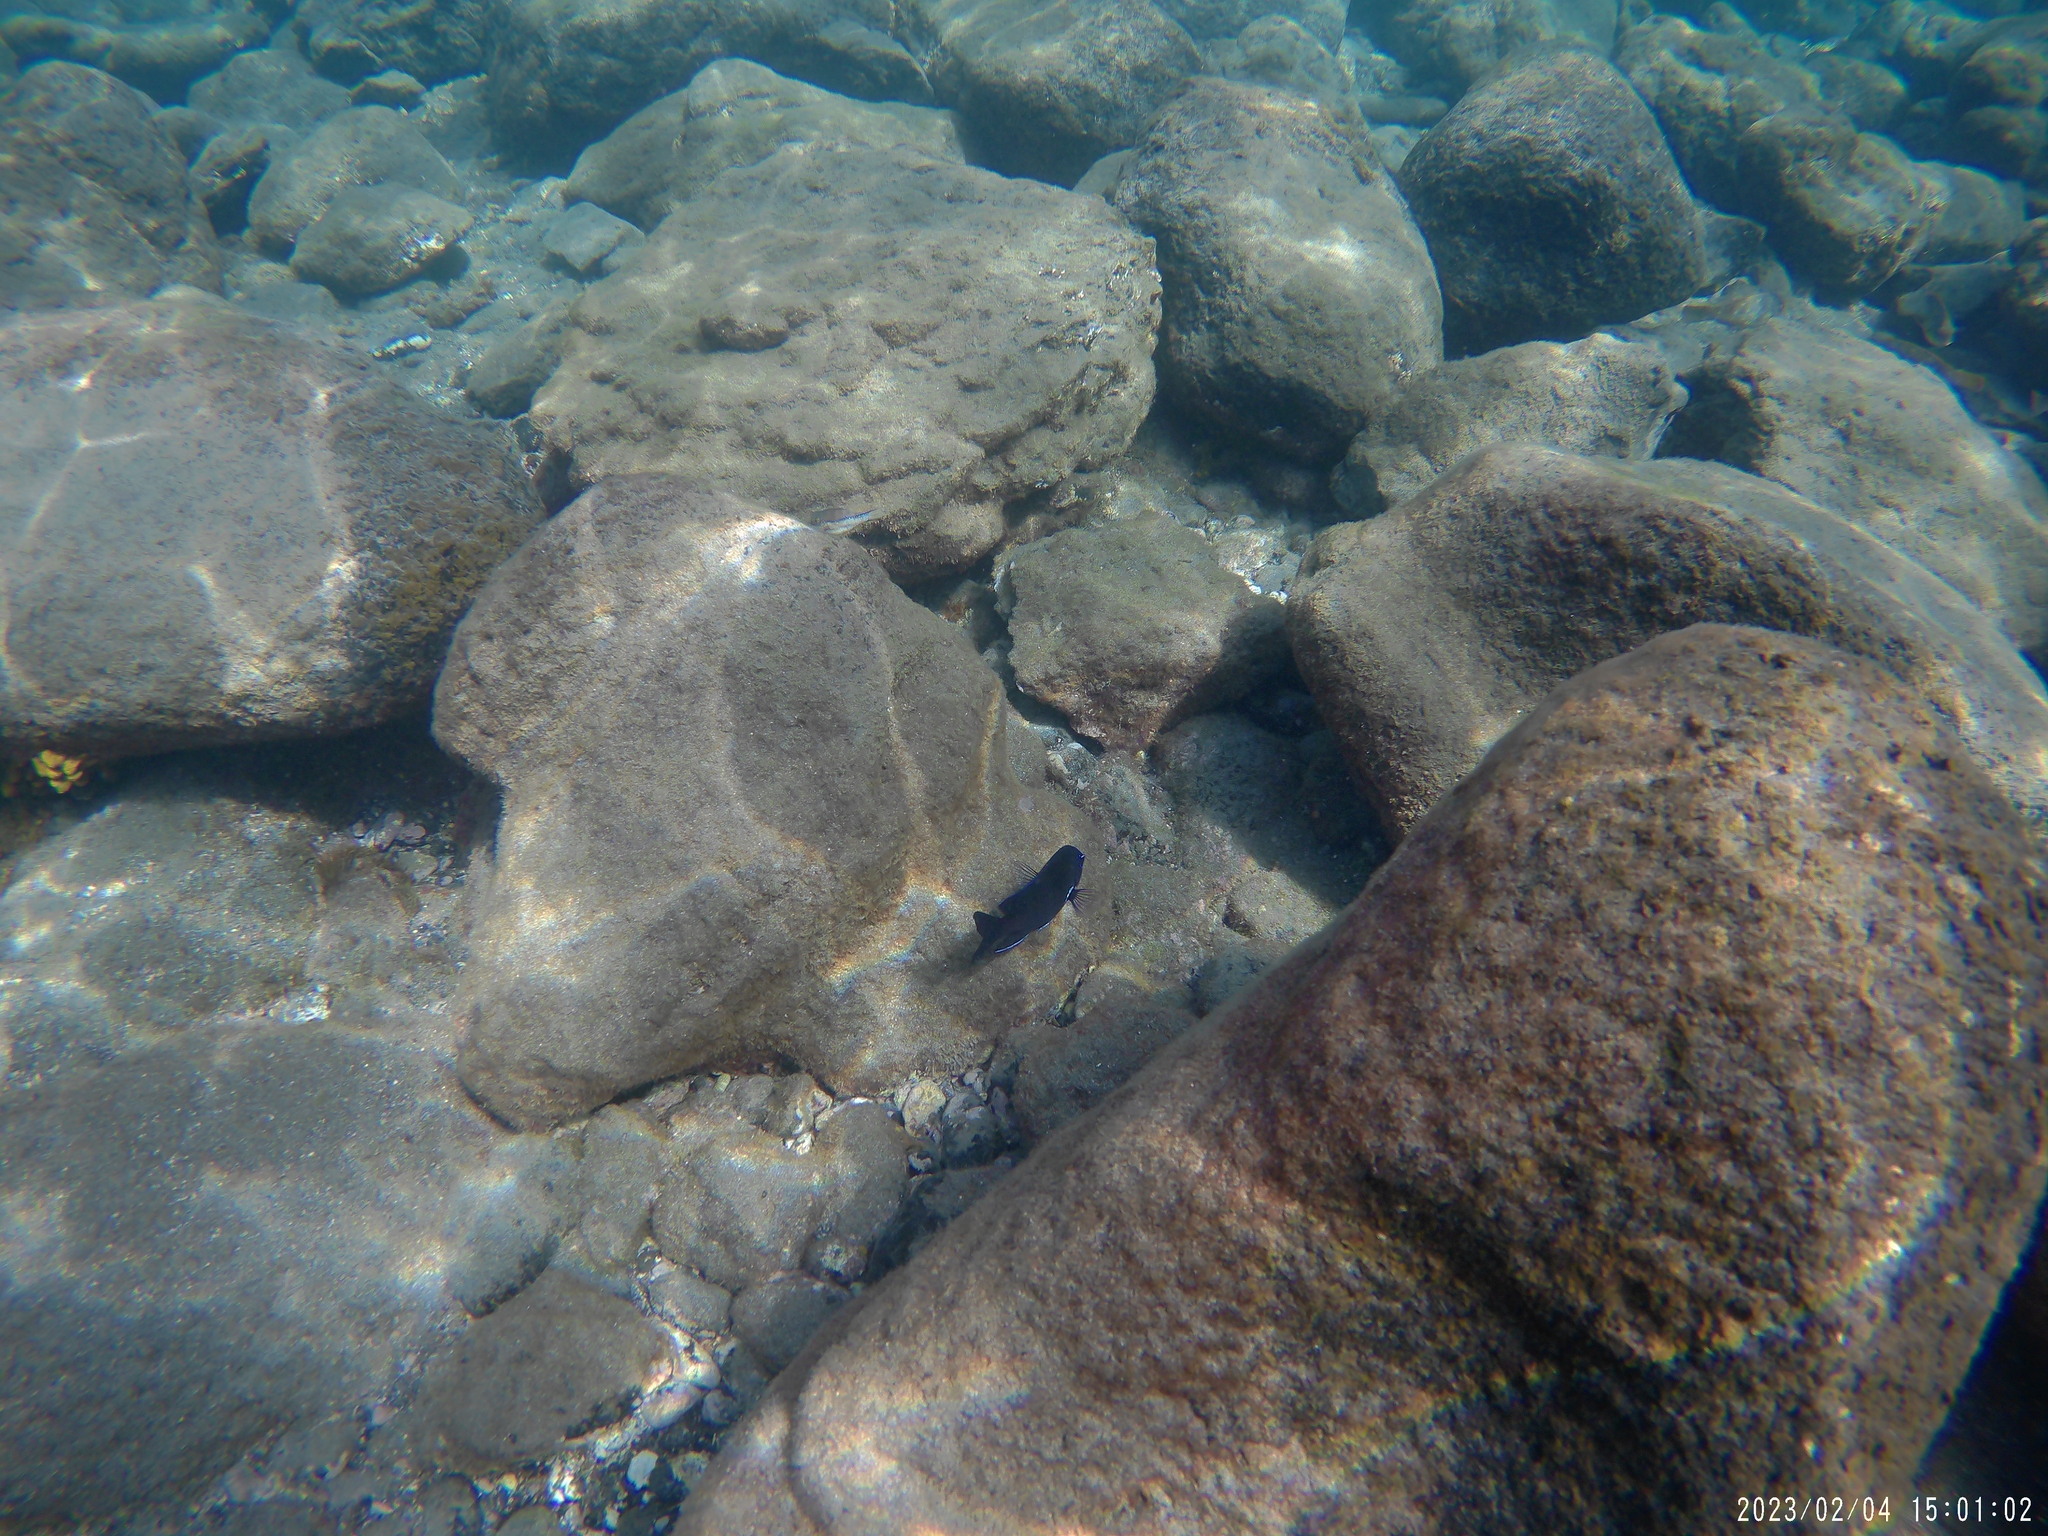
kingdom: Animalia
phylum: Chordata
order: Perciformes
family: Pomacentridae
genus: Similiparma
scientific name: Similiparma lurida
